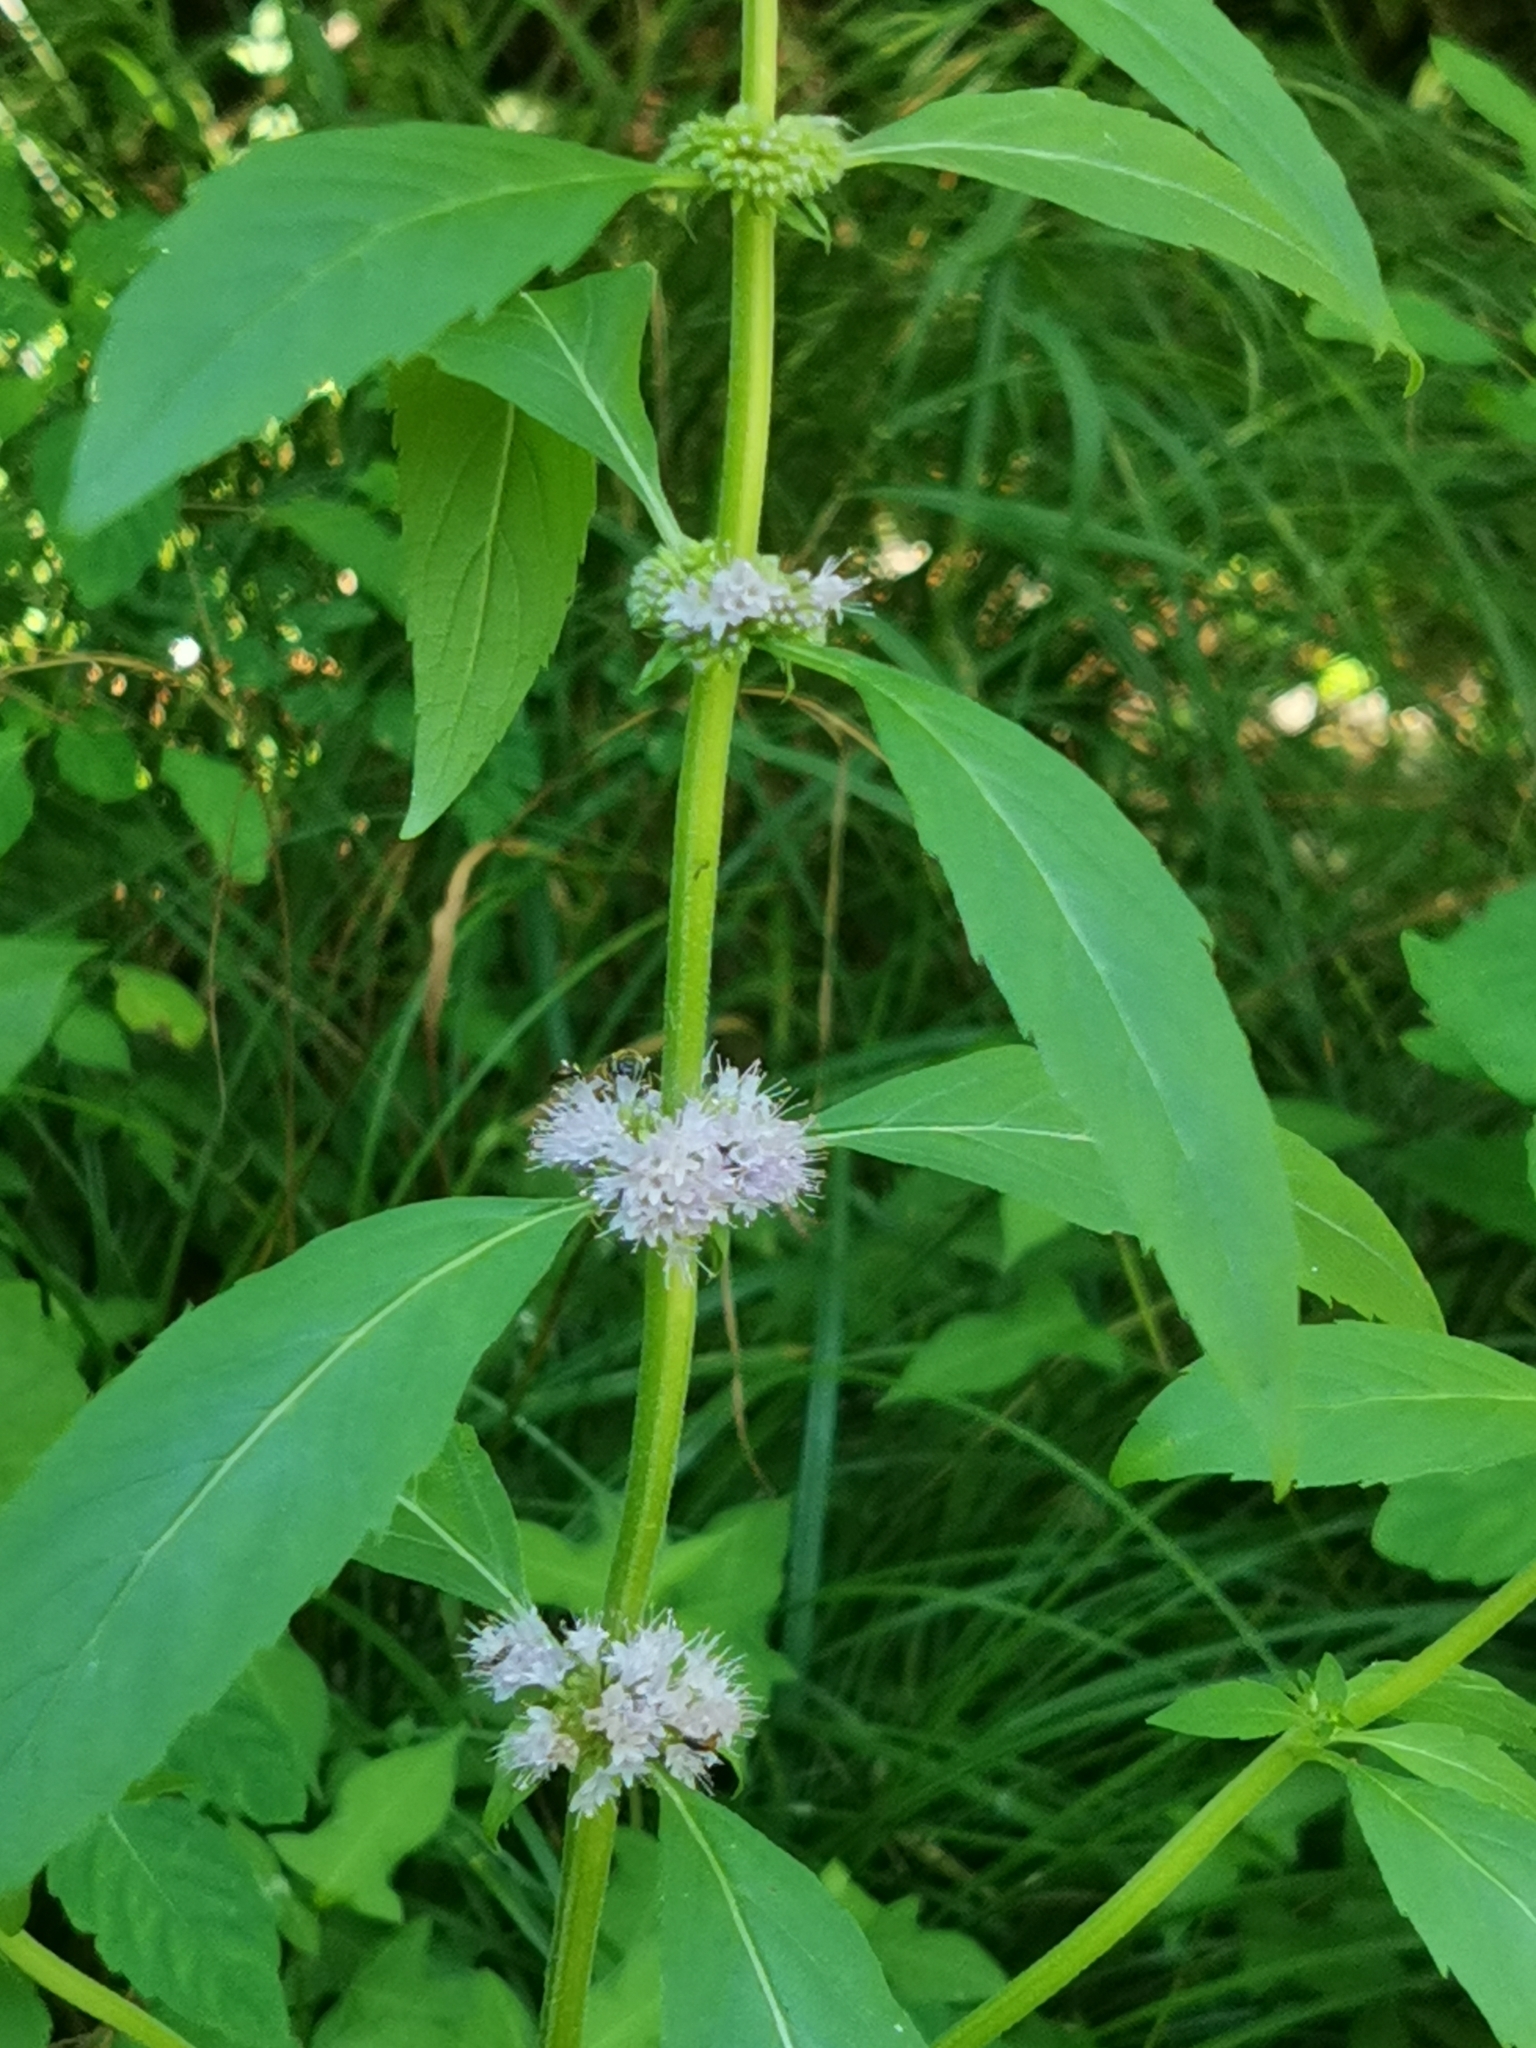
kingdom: Plantae
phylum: Tracheophyta
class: Magnoliopsida
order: Lamiales
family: Lamiaceae
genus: Mentha
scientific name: Mentha canadensis
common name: American corn mint
